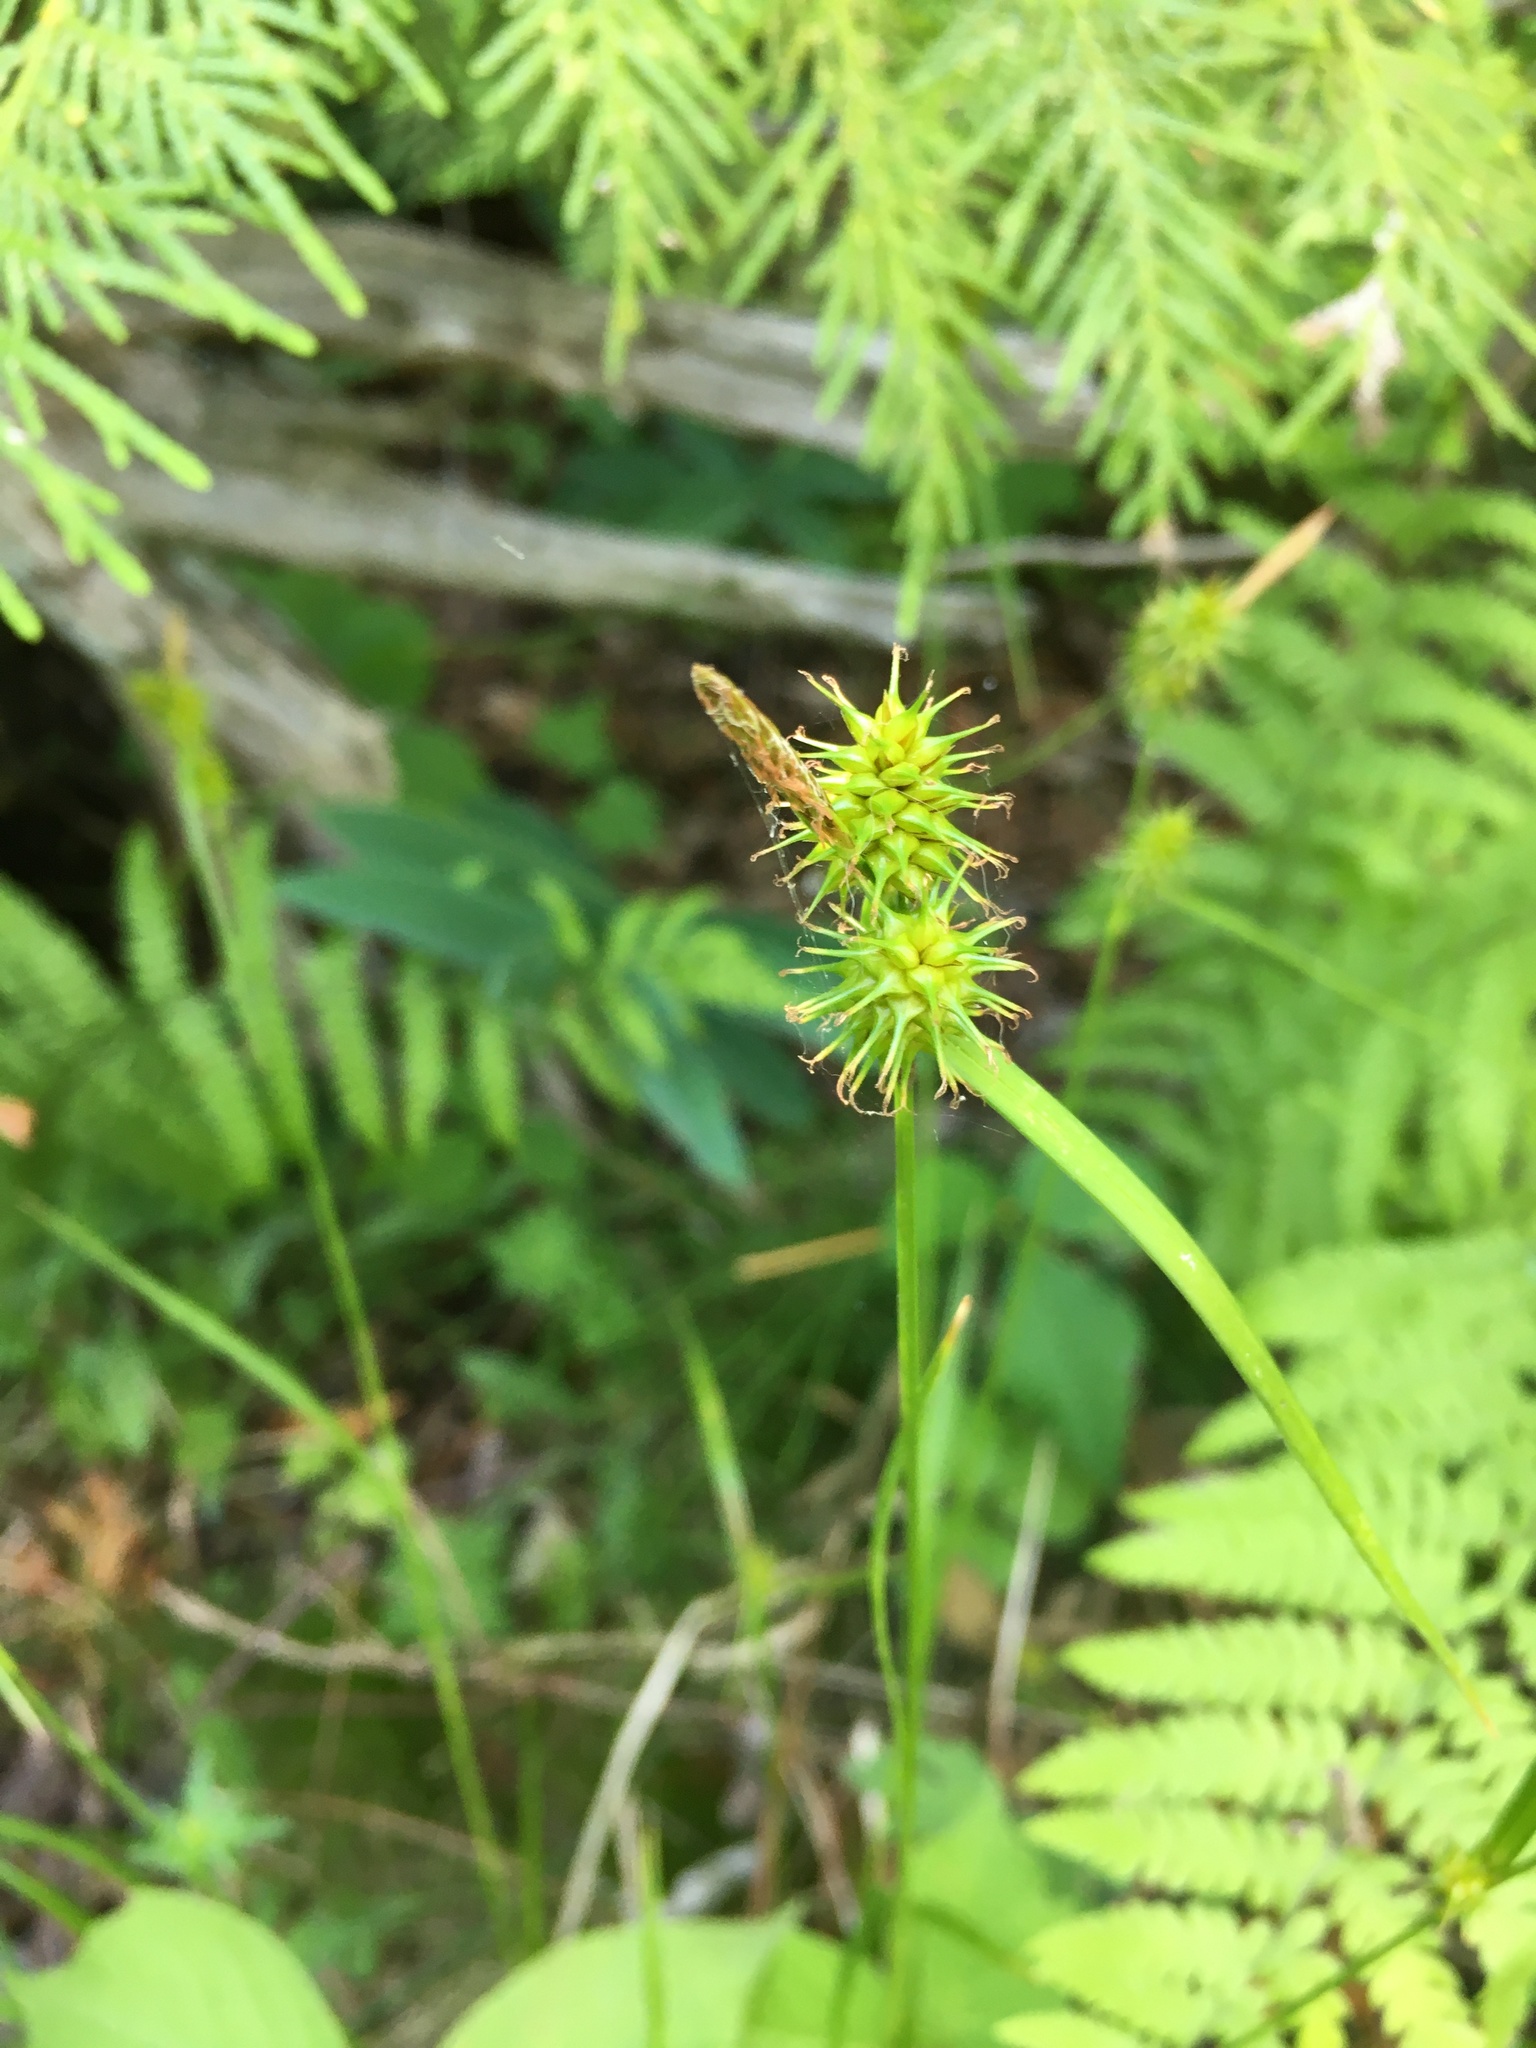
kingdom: Plantae
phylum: Tracheophyta
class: Liliopsida
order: Poales
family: Cyperaceae
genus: Carex
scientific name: Carex flava
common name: Large yellow-sedge
